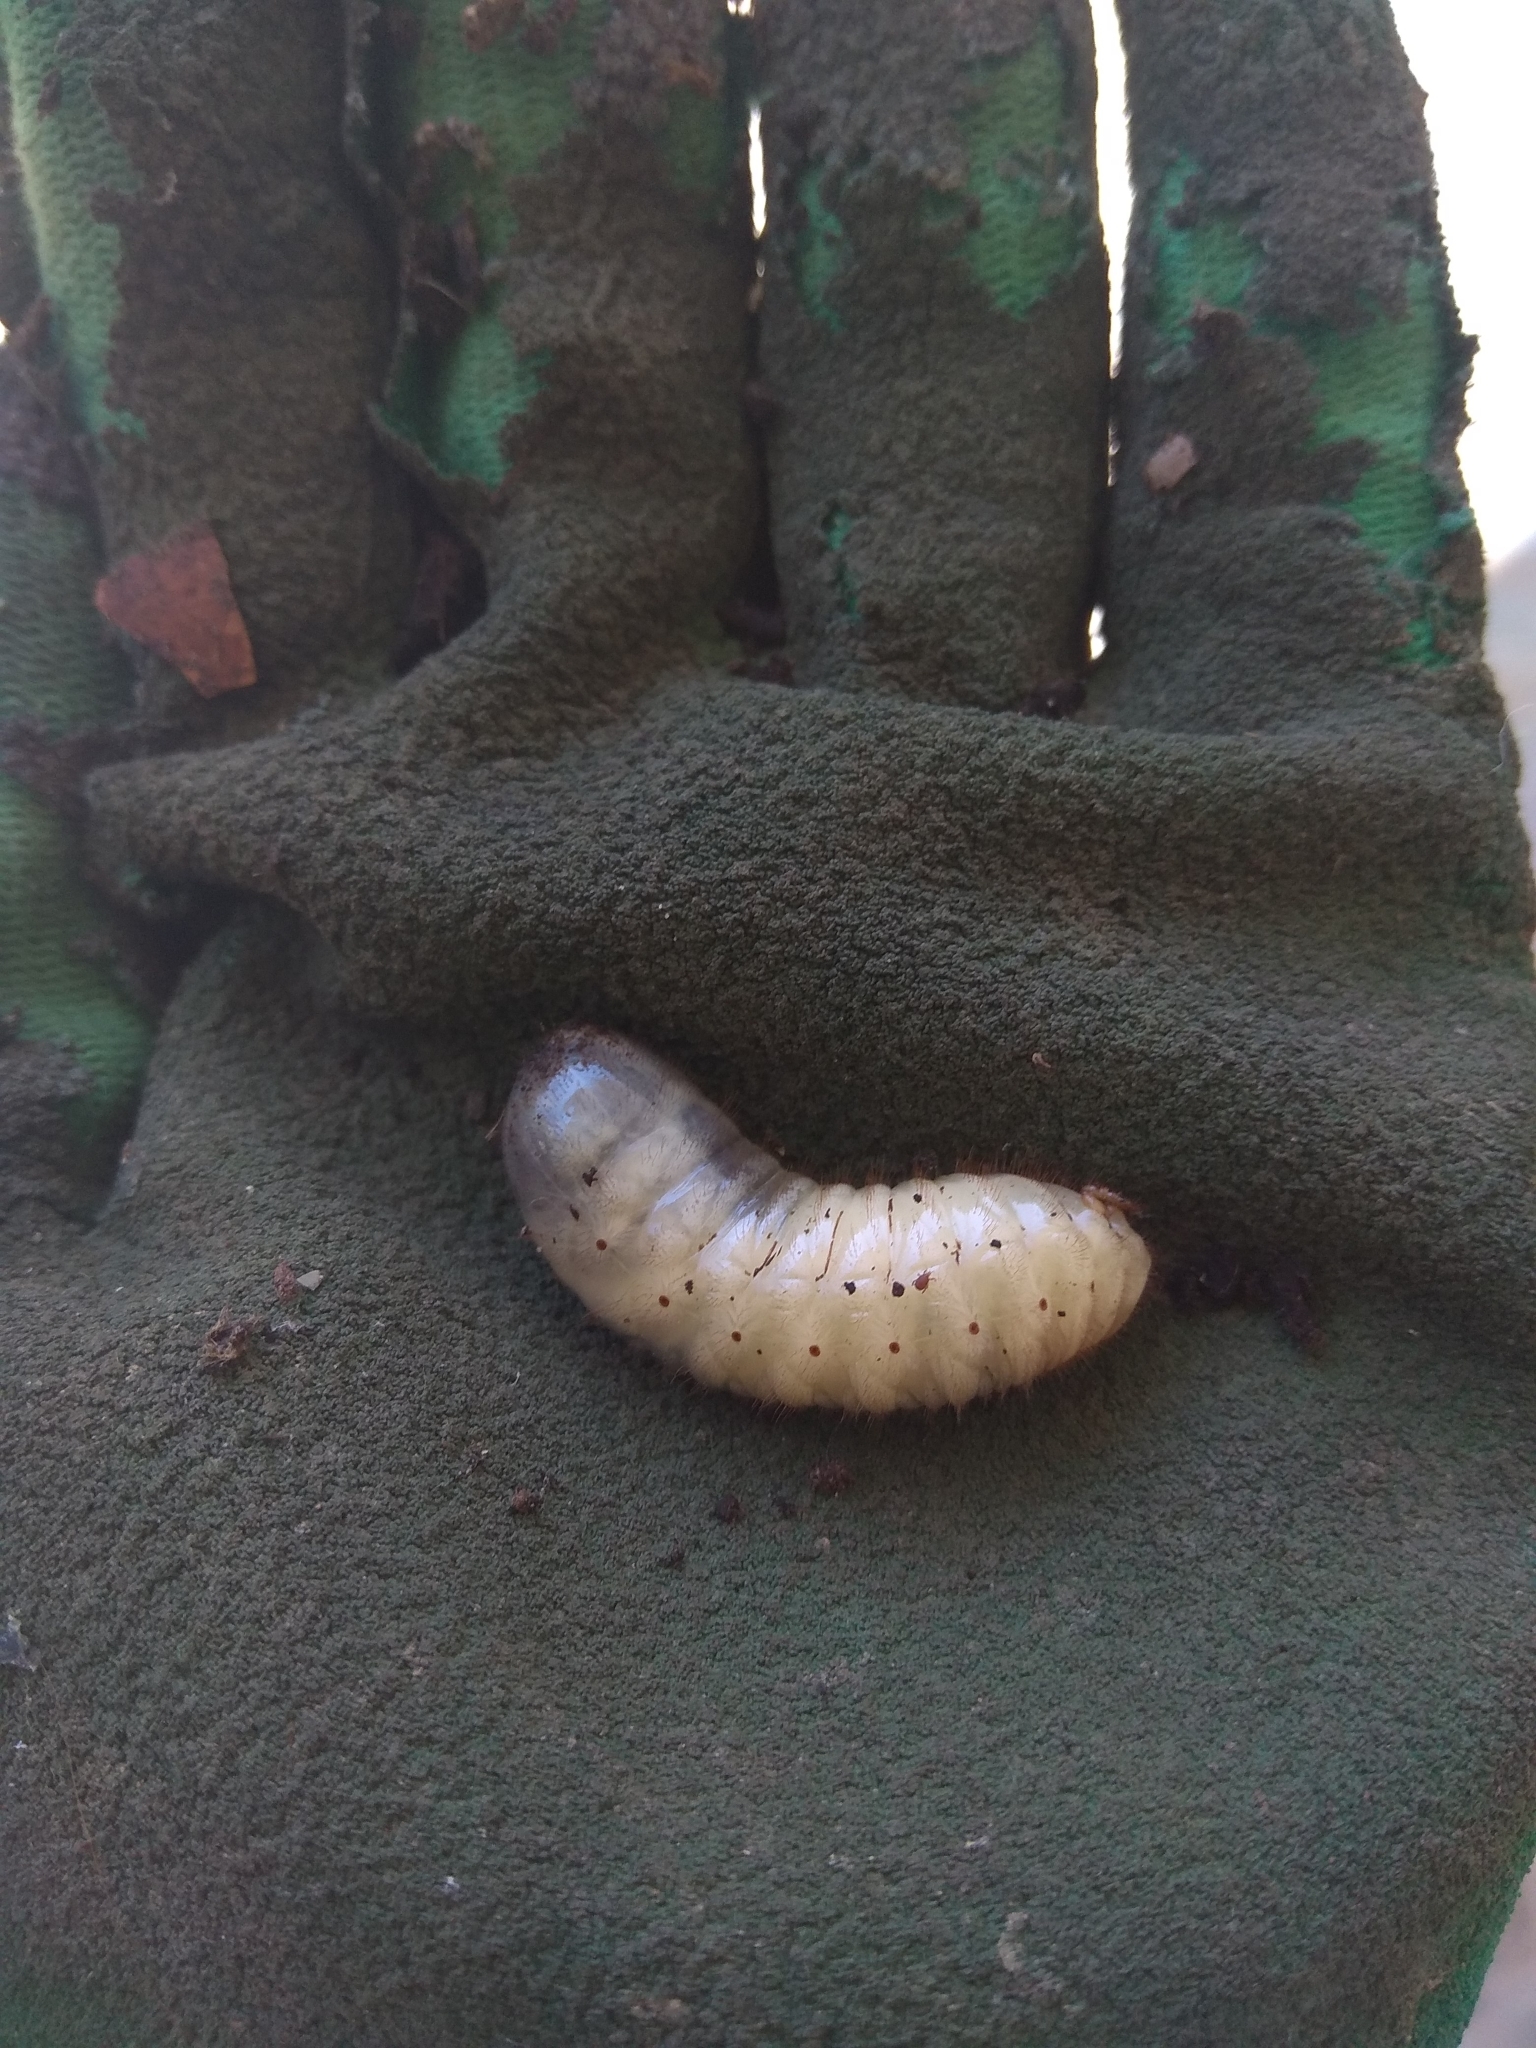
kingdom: Animalia
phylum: Arthropoda
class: Insecta
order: Coleoptera
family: Cetoniidae
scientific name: Cetoniidae
